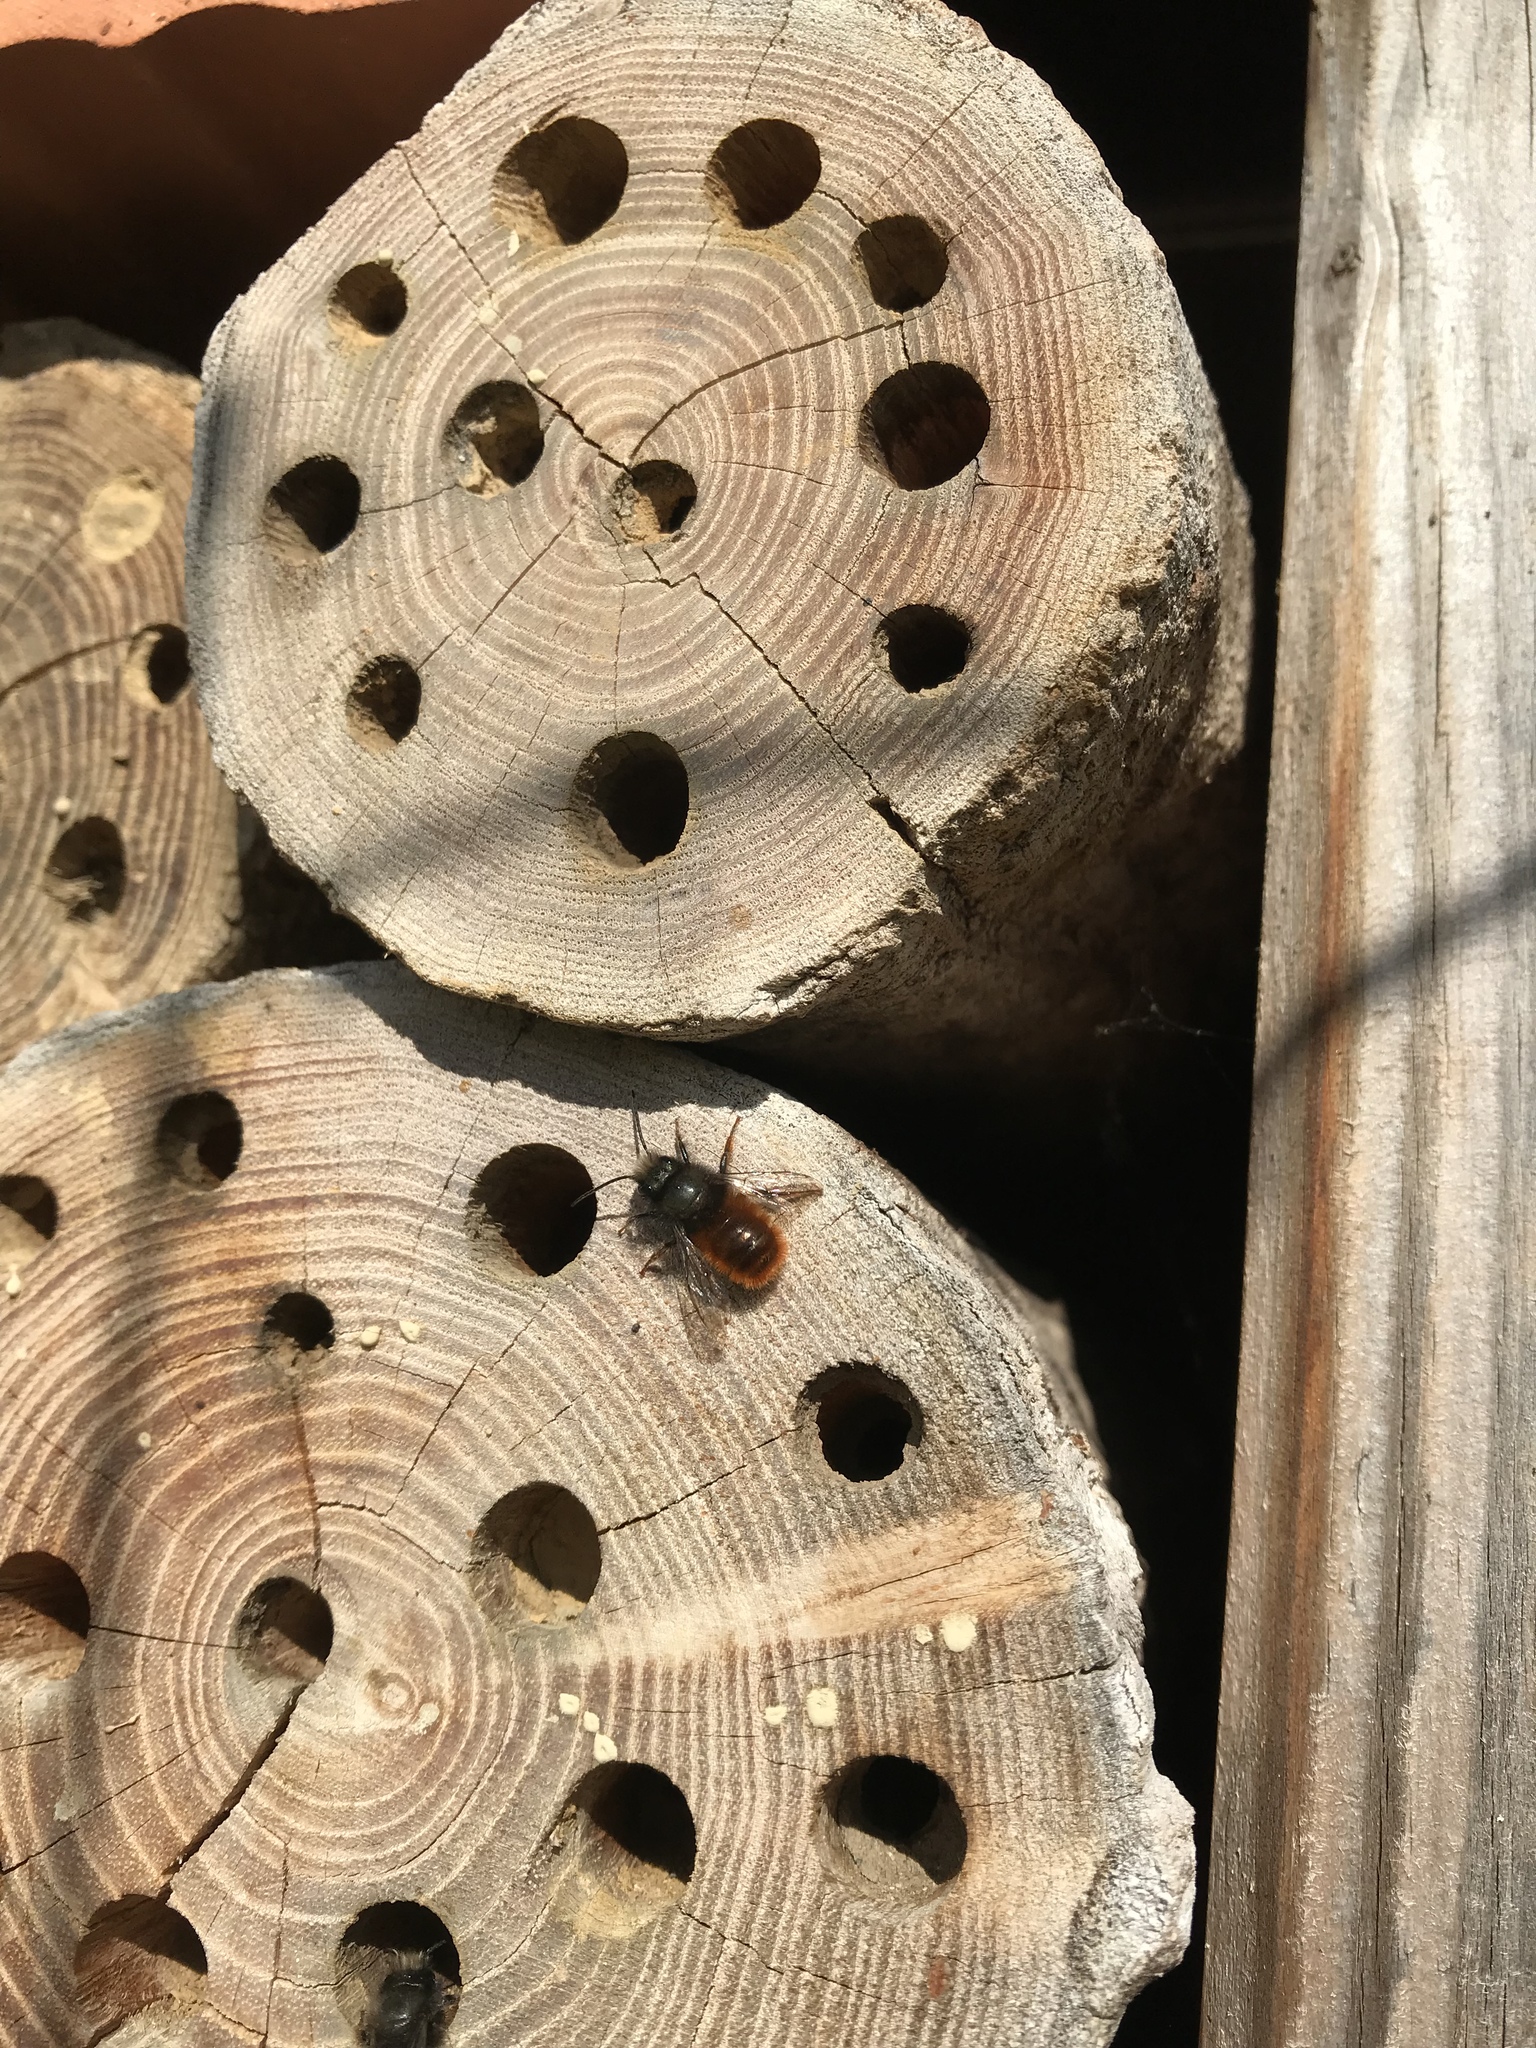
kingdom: Animalia
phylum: Arthropoda
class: Insecta
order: Hymenoptera
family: Megachilidae
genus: Osmia
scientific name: Osmia cornuta
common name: Mason bee
